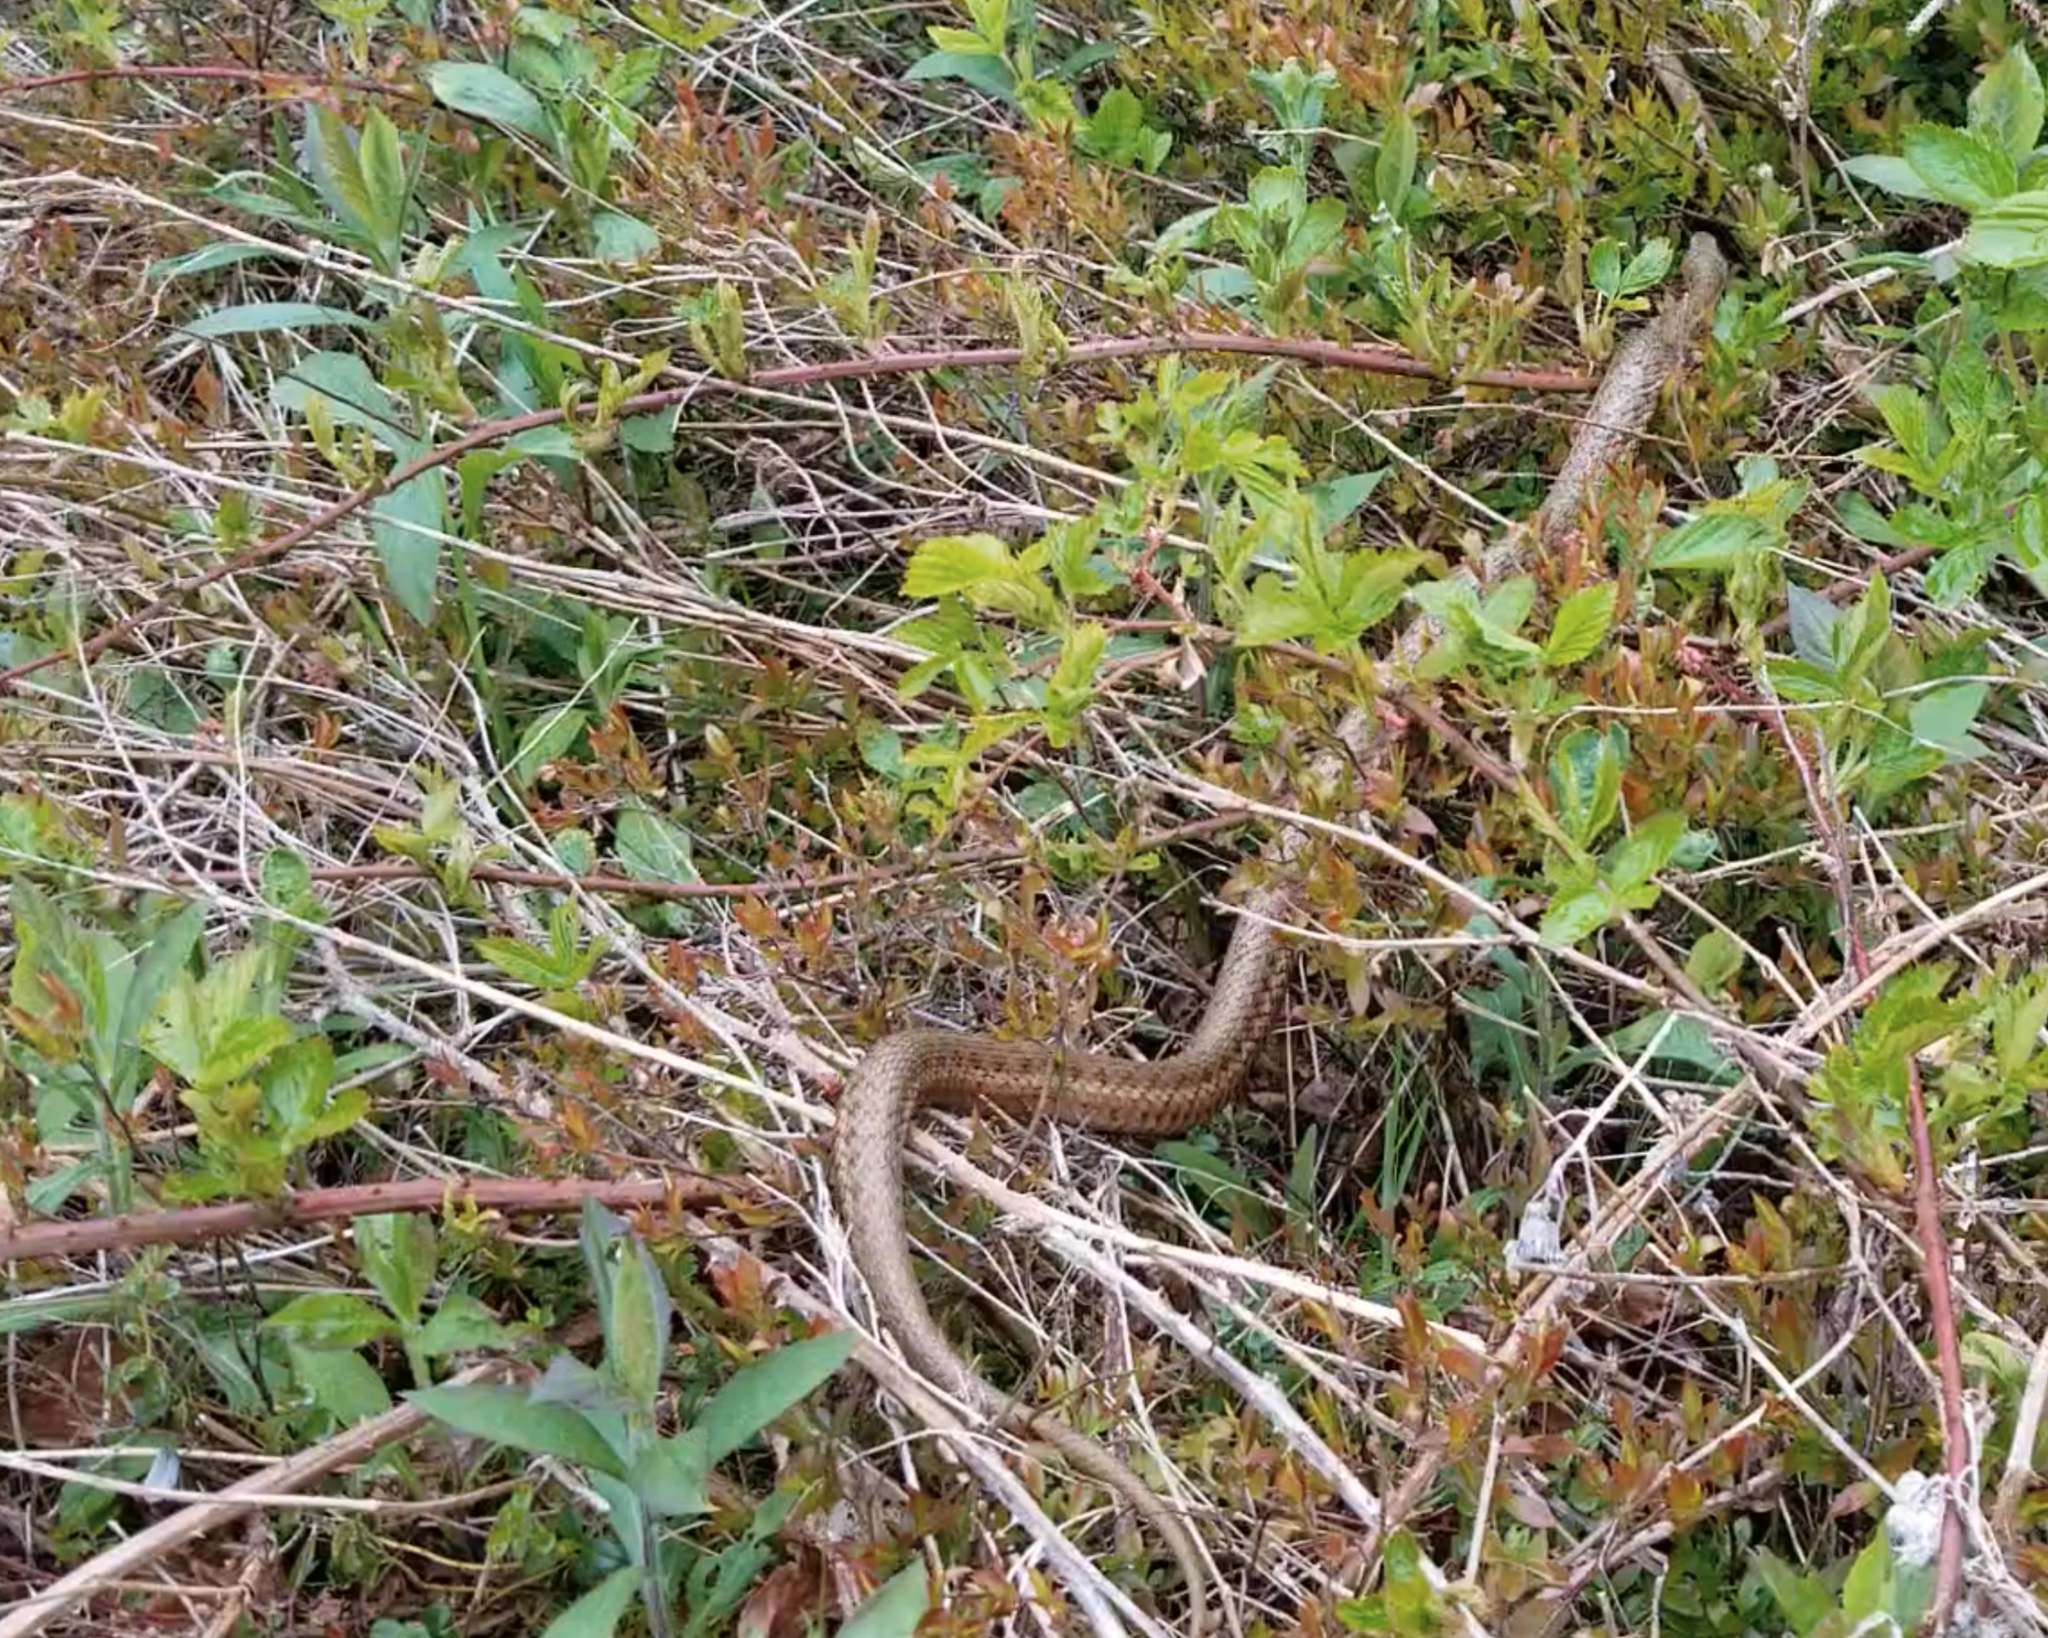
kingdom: Animalia
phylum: Chordata
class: Squamata
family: Colubridae
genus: Thamnophis
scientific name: Thamnophis sirtalis
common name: Common garter snake
